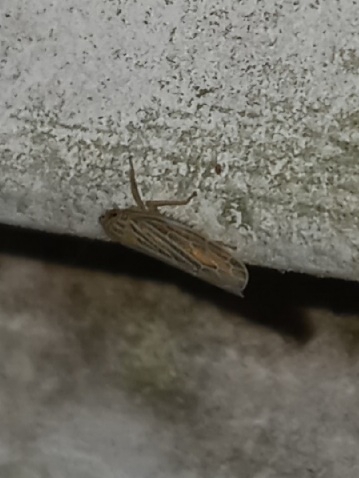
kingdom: Animalia
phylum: Arthropoda
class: Insecta
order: Hemiptera
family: Cicadellidae
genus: Graminella
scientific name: Graminella fitchii
